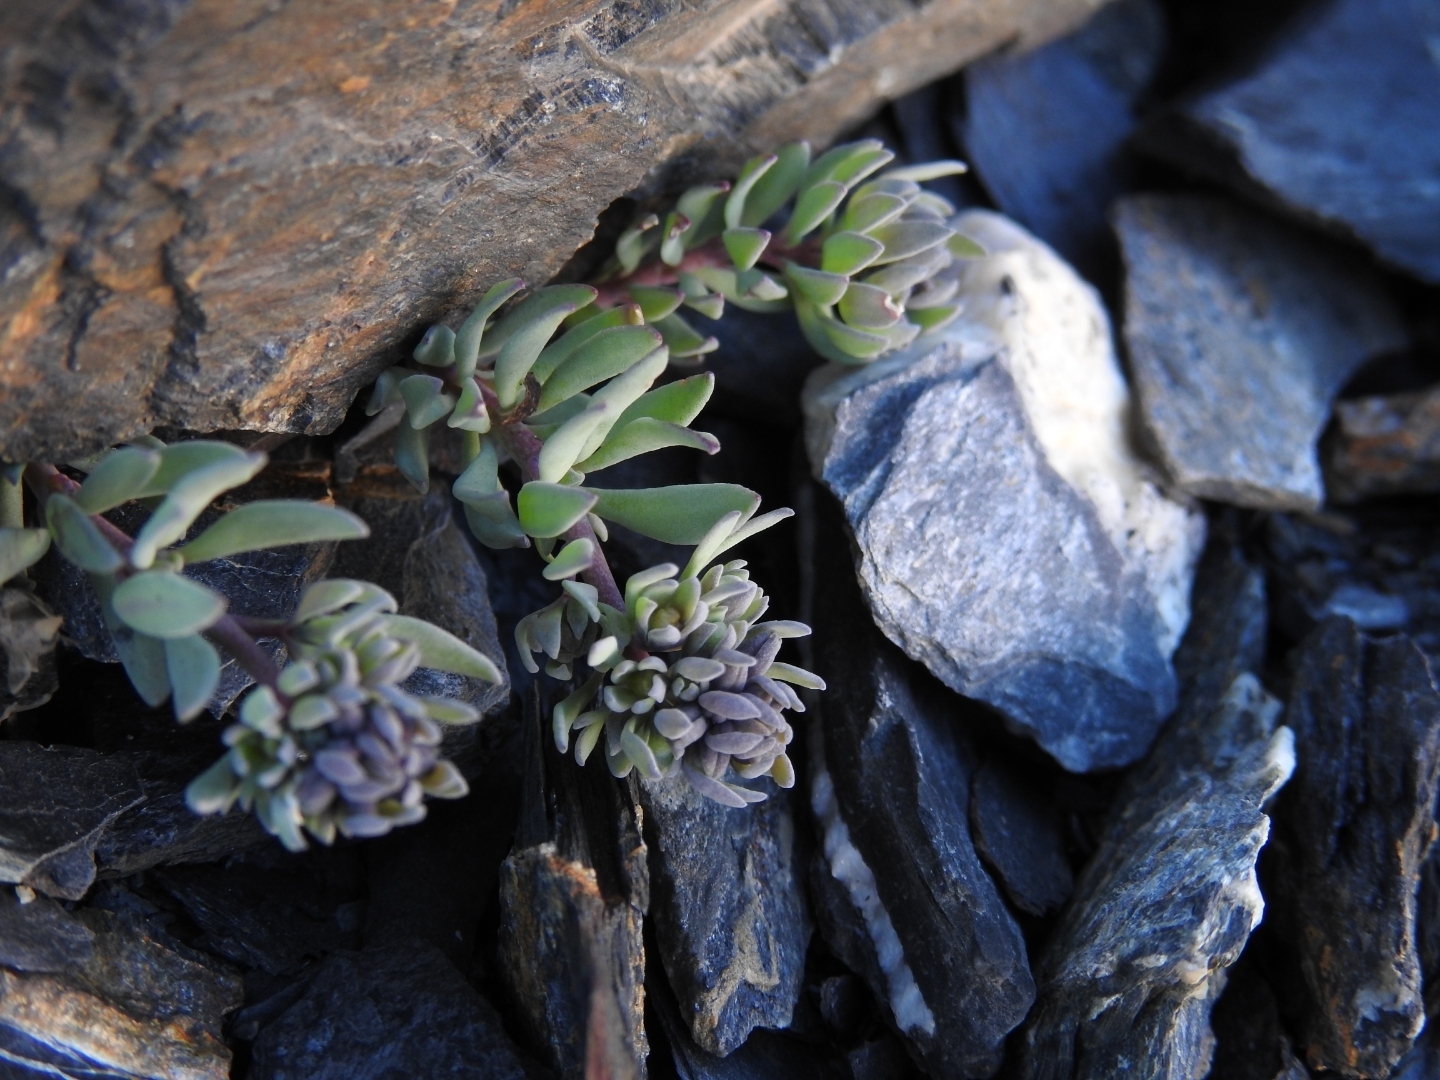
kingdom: Plantae
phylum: Tracheophyta
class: Magnoliopsida
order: Lamiales
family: Plantaginaceae
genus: Linaria
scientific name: Linaria alpina
